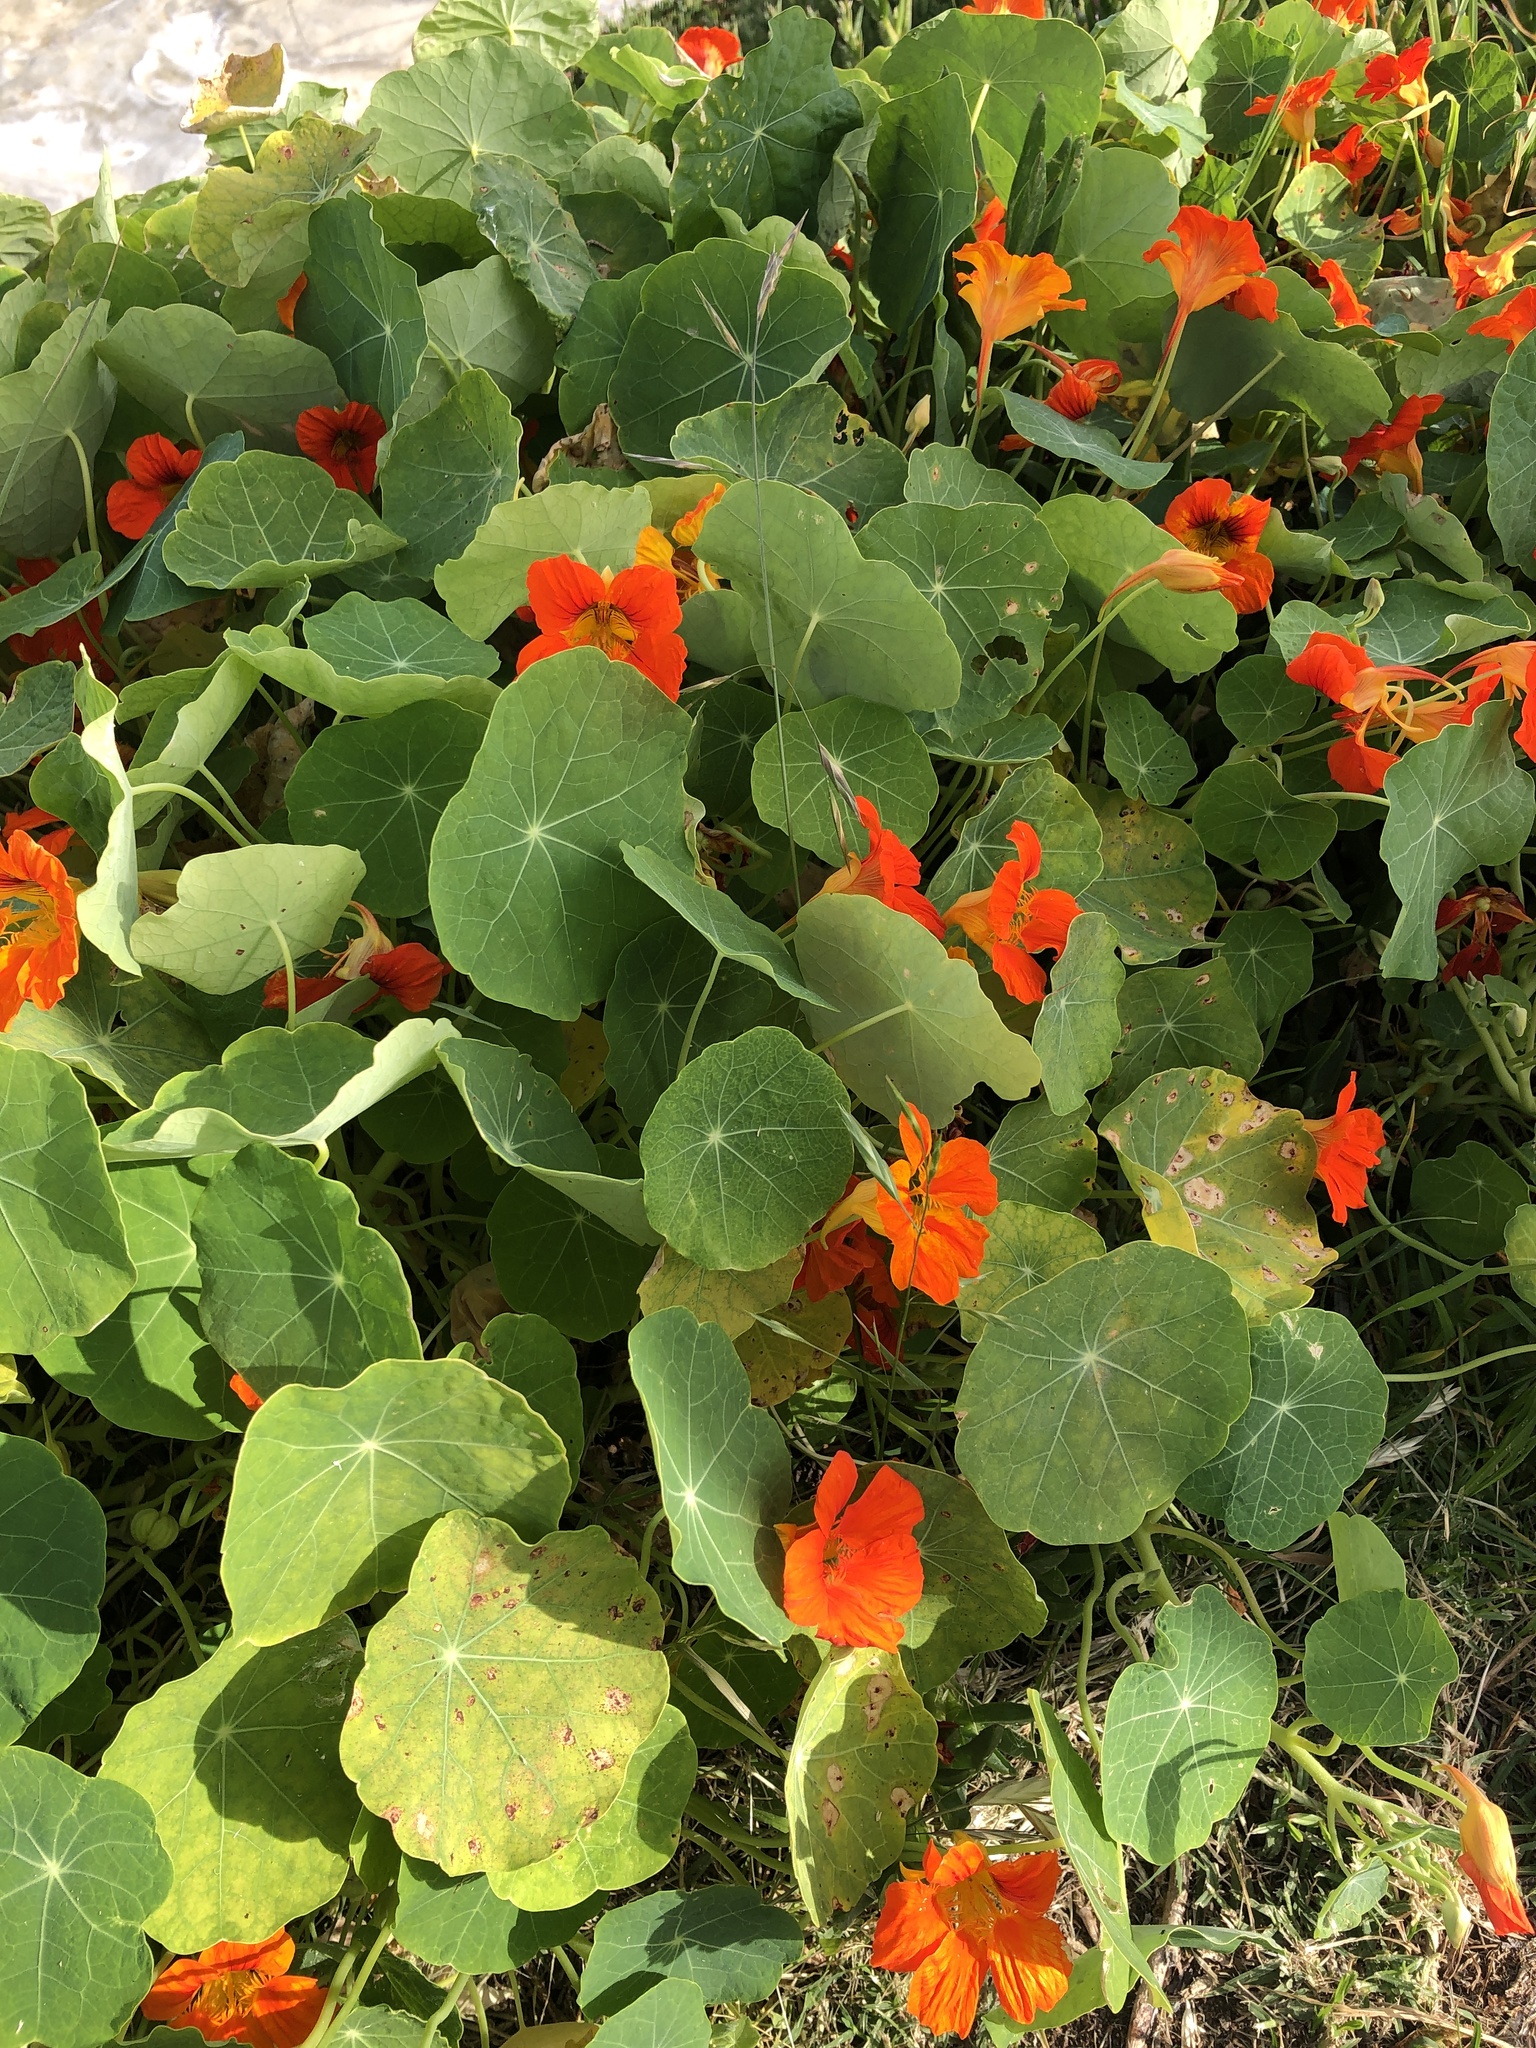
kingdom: Plantae
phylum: Tracheophyta
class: Magnoliopsida
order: Brassicales
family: Tropaeolaceae
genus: Tropaeolum
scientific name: Tropaeolum majus
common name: Nasturtium
